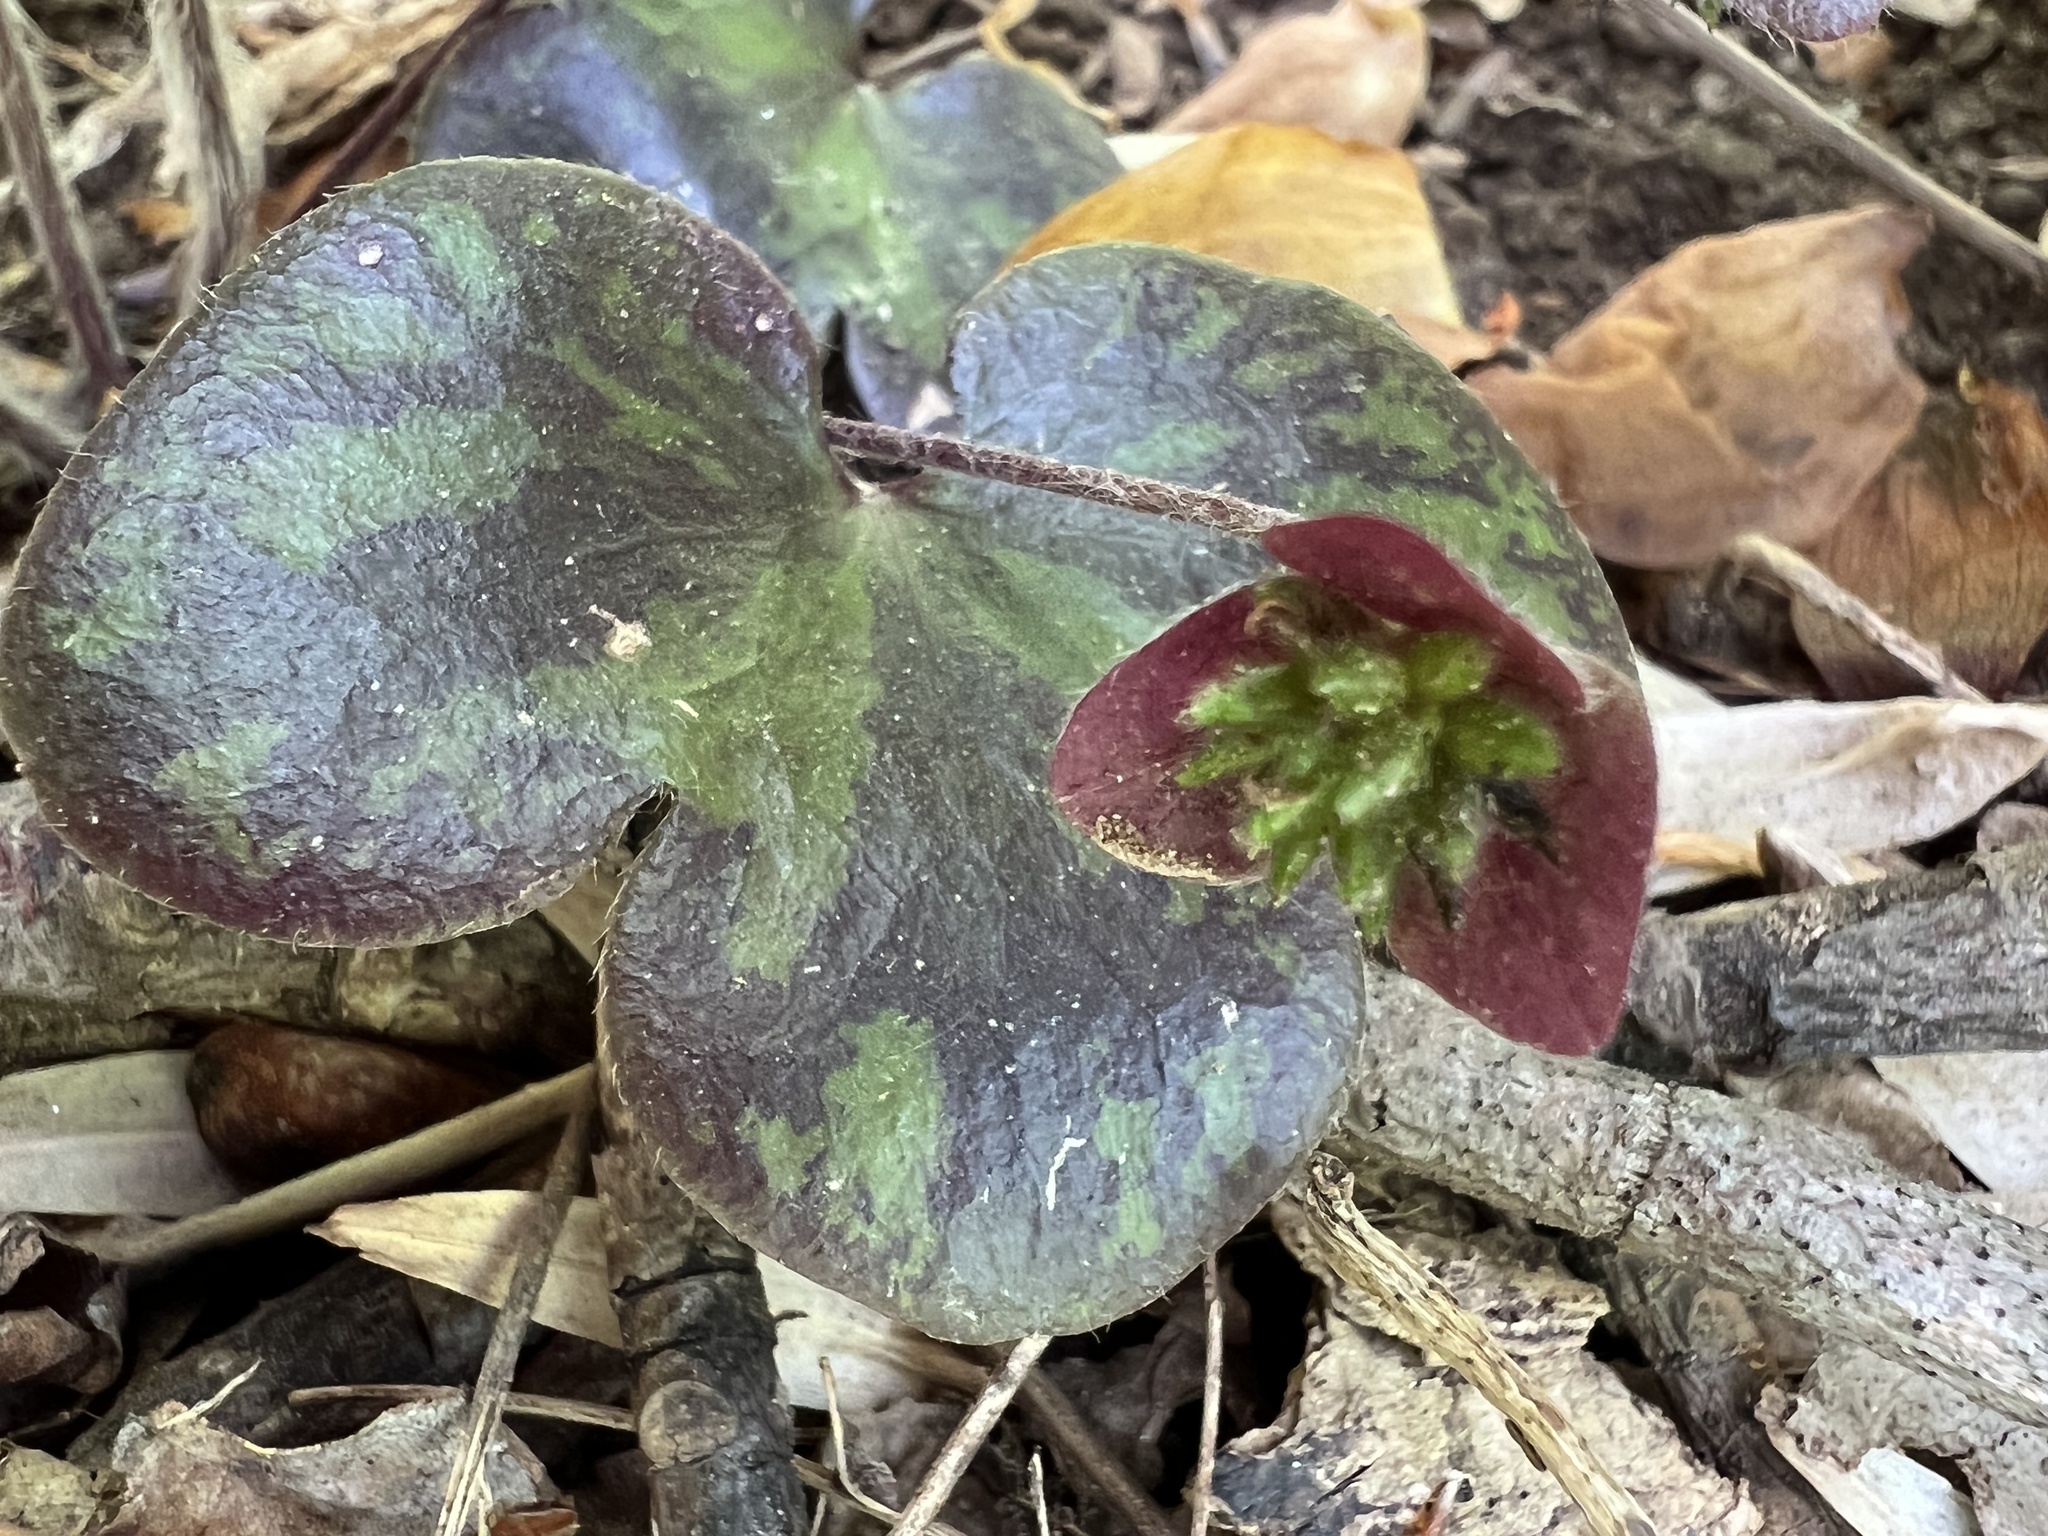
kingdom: Plantae
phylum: Tracheophyta
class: Magnoliopsida
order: Ranunculales
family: Ranunculaceae
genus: Hepatica
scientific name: Hepatica americana
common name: American hepatica
